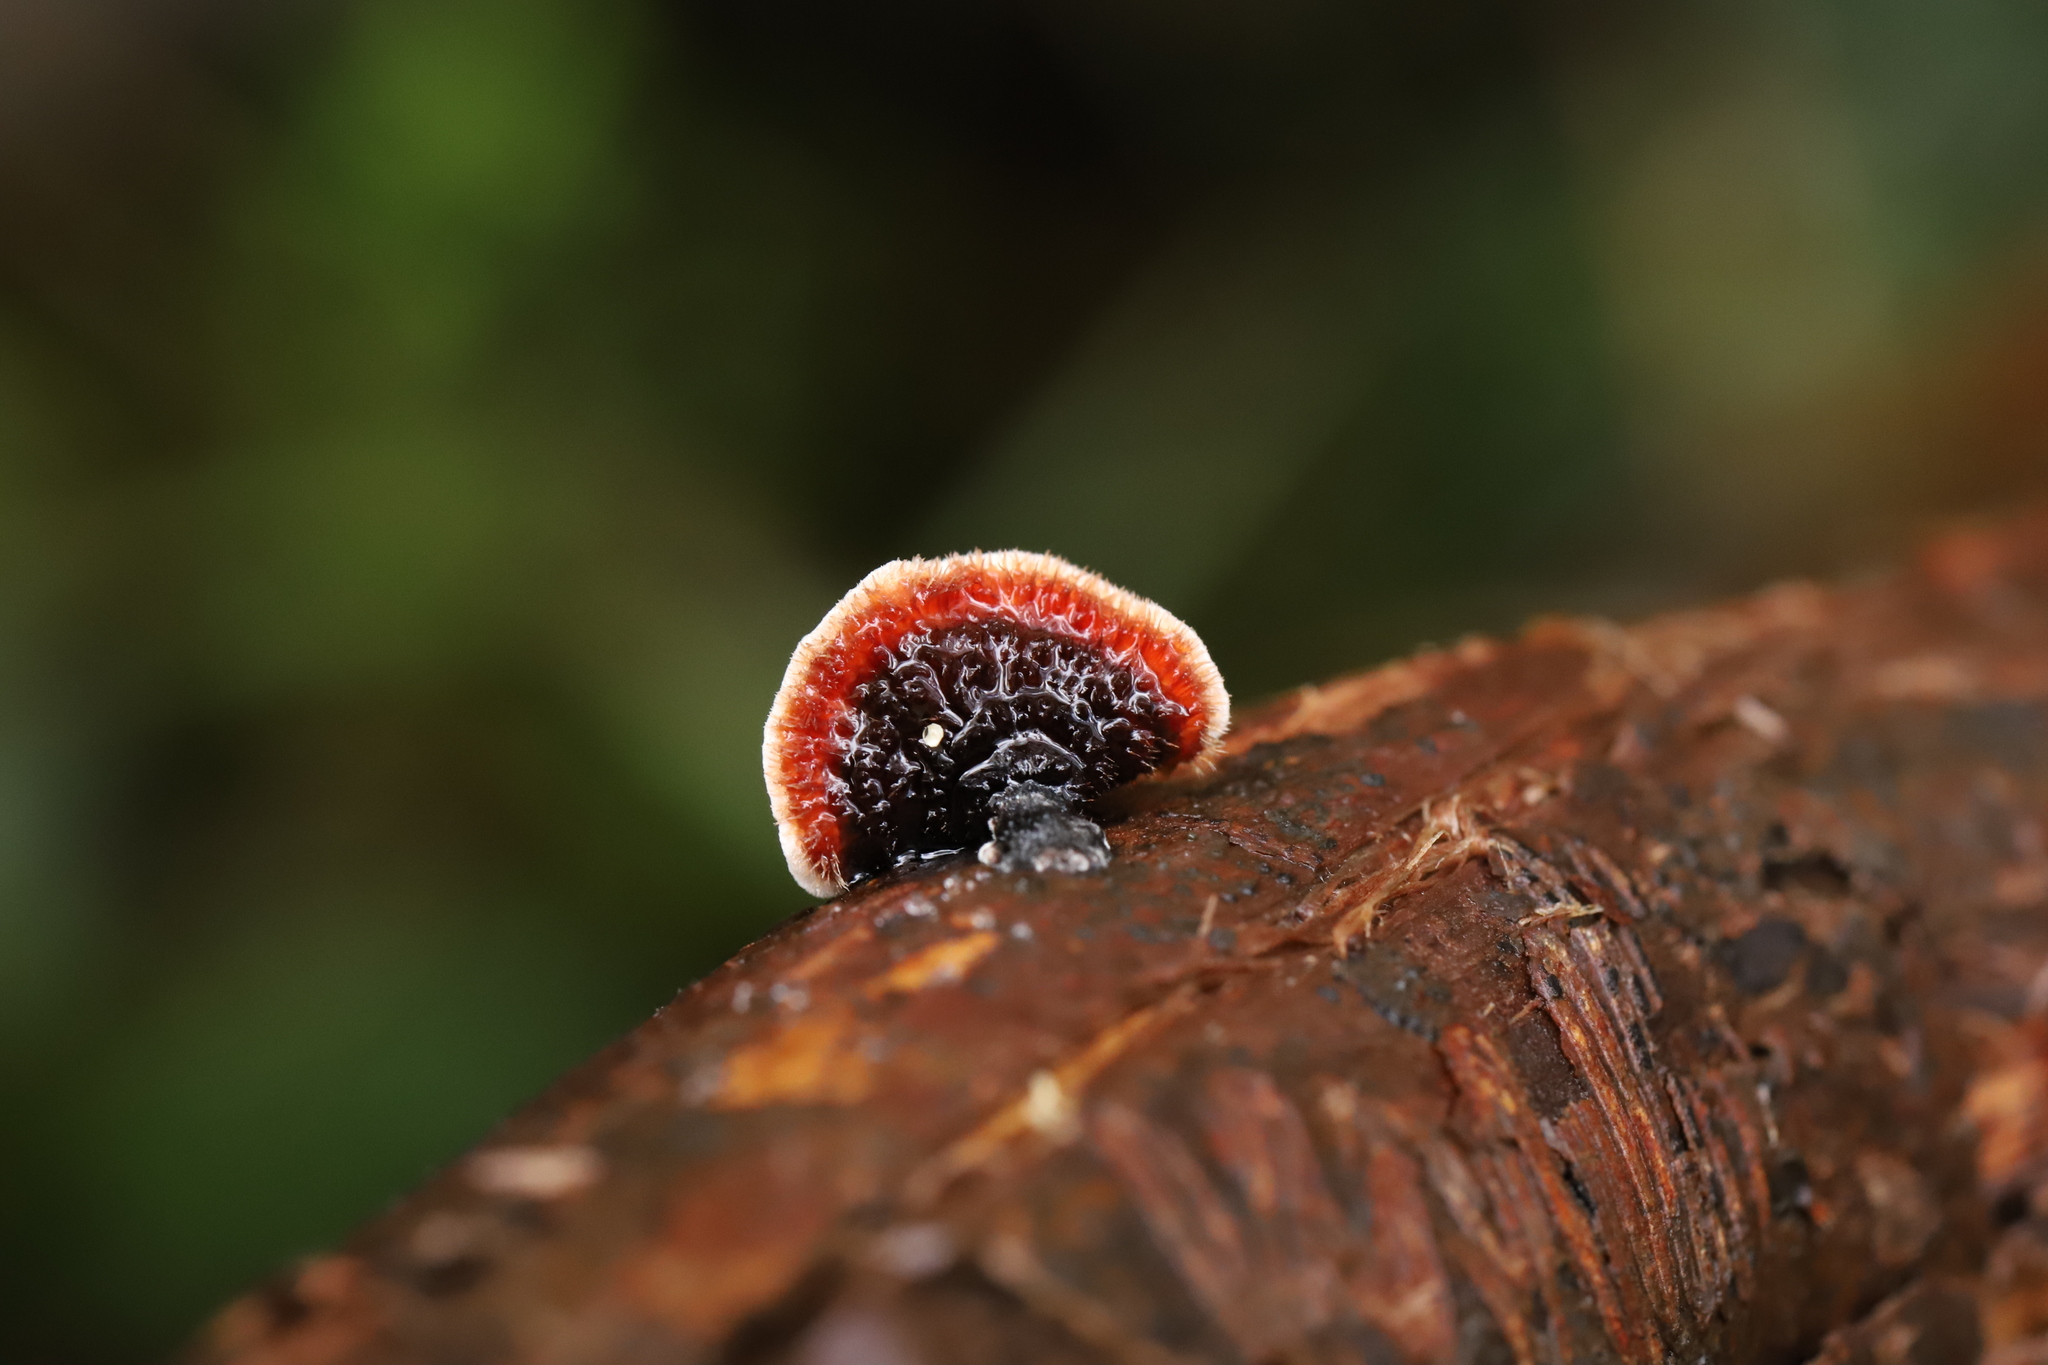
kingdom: Fungi
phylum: Basidiomycota
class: Agaricomycetes
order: Russulales
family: Stereaceae
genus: Xylobolus
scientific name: Xylobolus illudens
